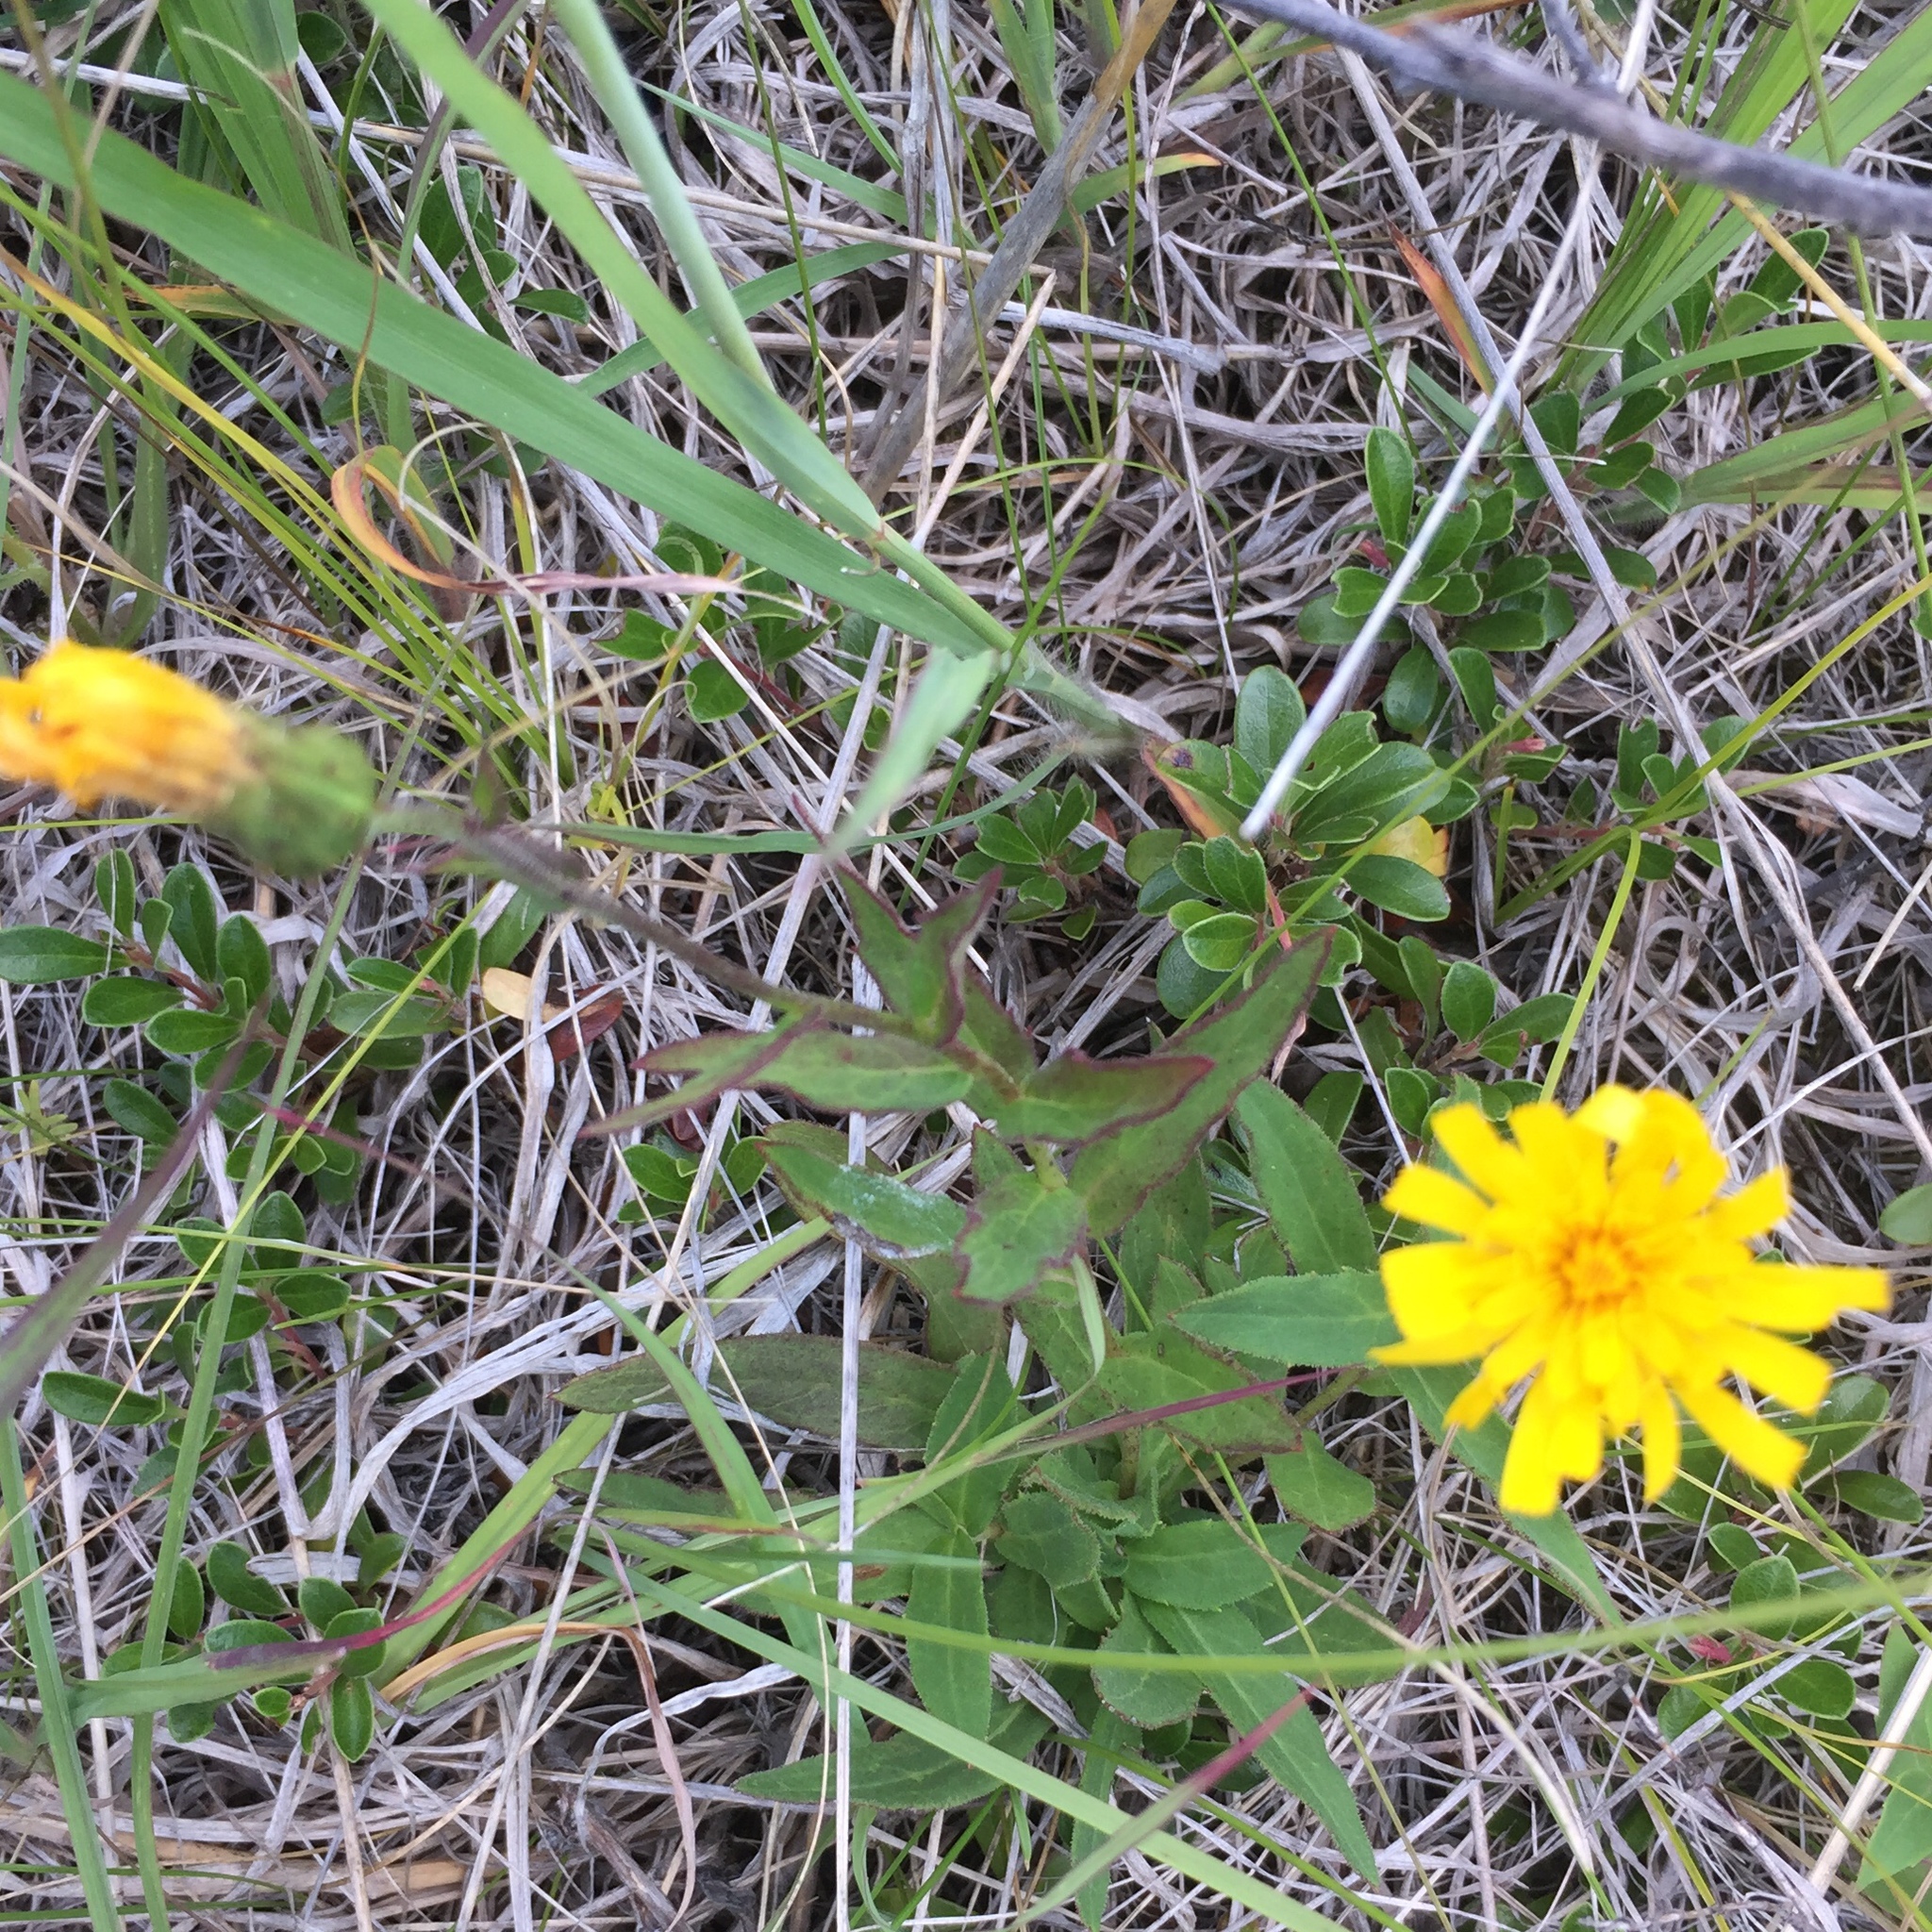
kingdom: Plantae
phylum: Tracheophyta
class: Magnoliopsida
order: Asterales
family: Asteraceae
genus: Hieracium
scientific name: Hieracium umbellatum
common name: Northern hawkweed
